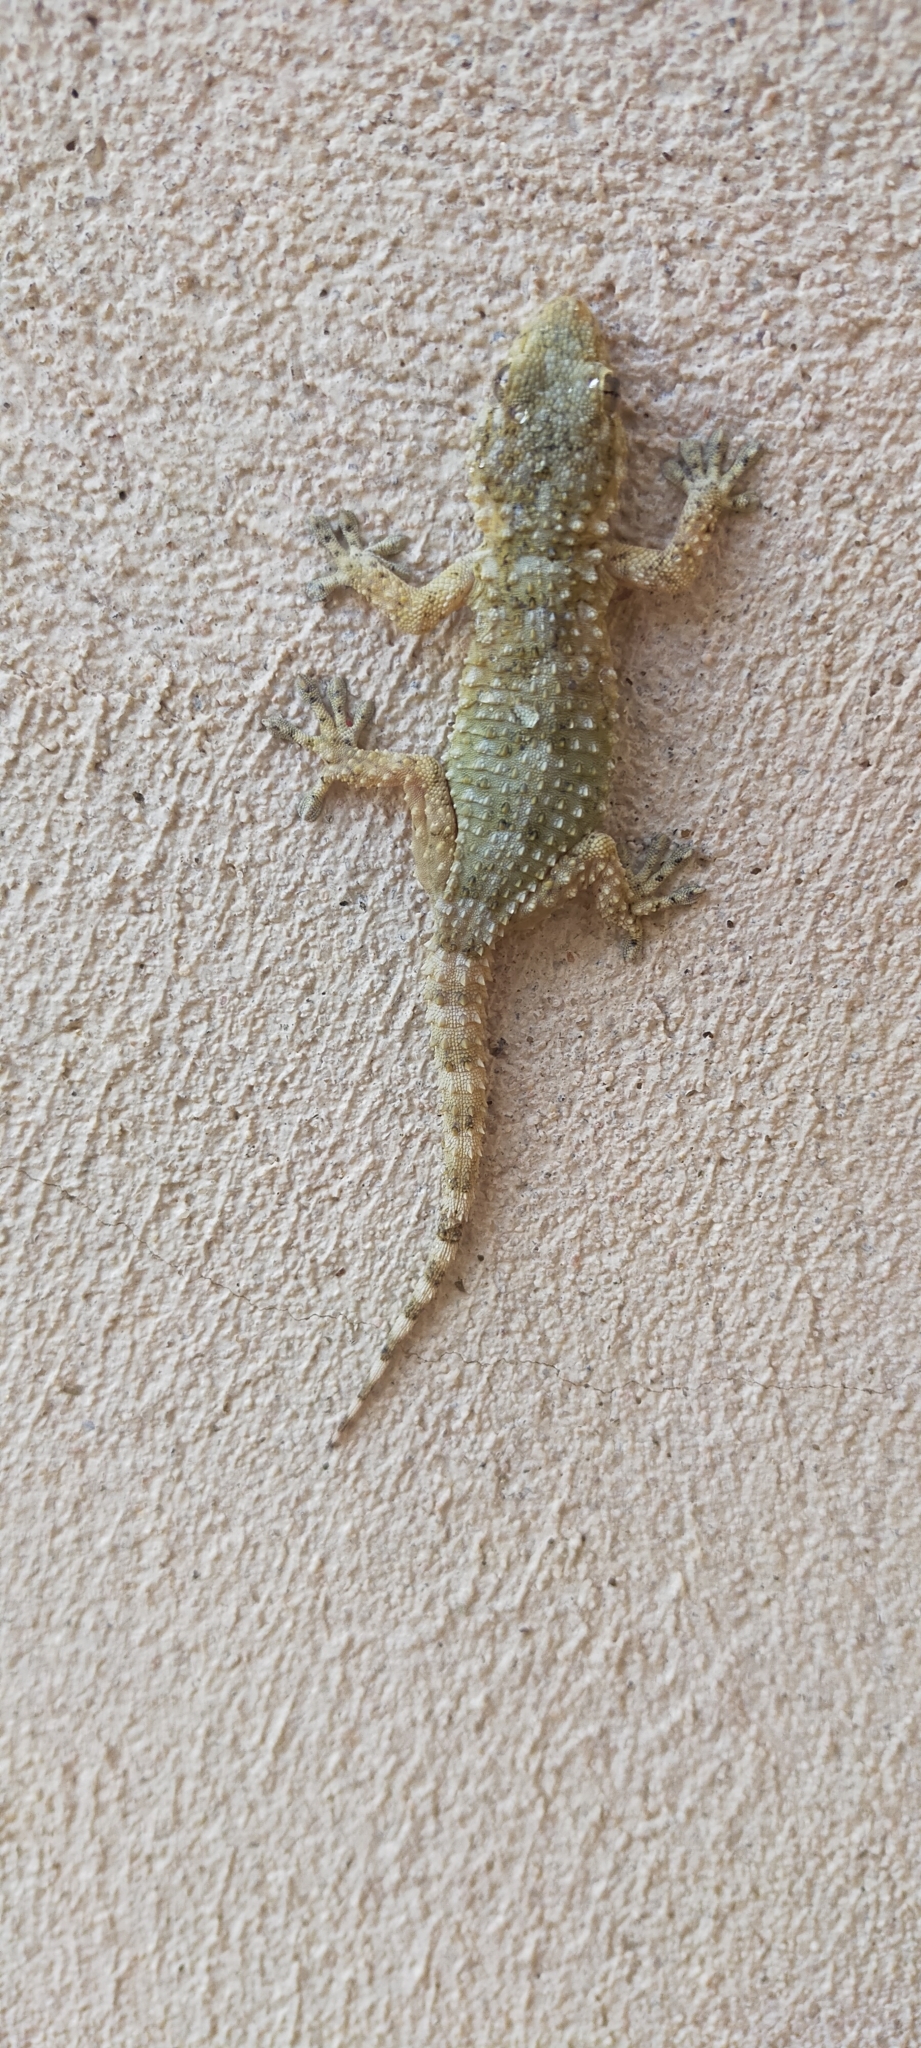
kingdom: Animalia
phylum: Chordata
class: Squamata
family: Phyllodactylidae
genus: Tarentola
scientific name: Tarentola mauritanica
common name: Moorish gecko
